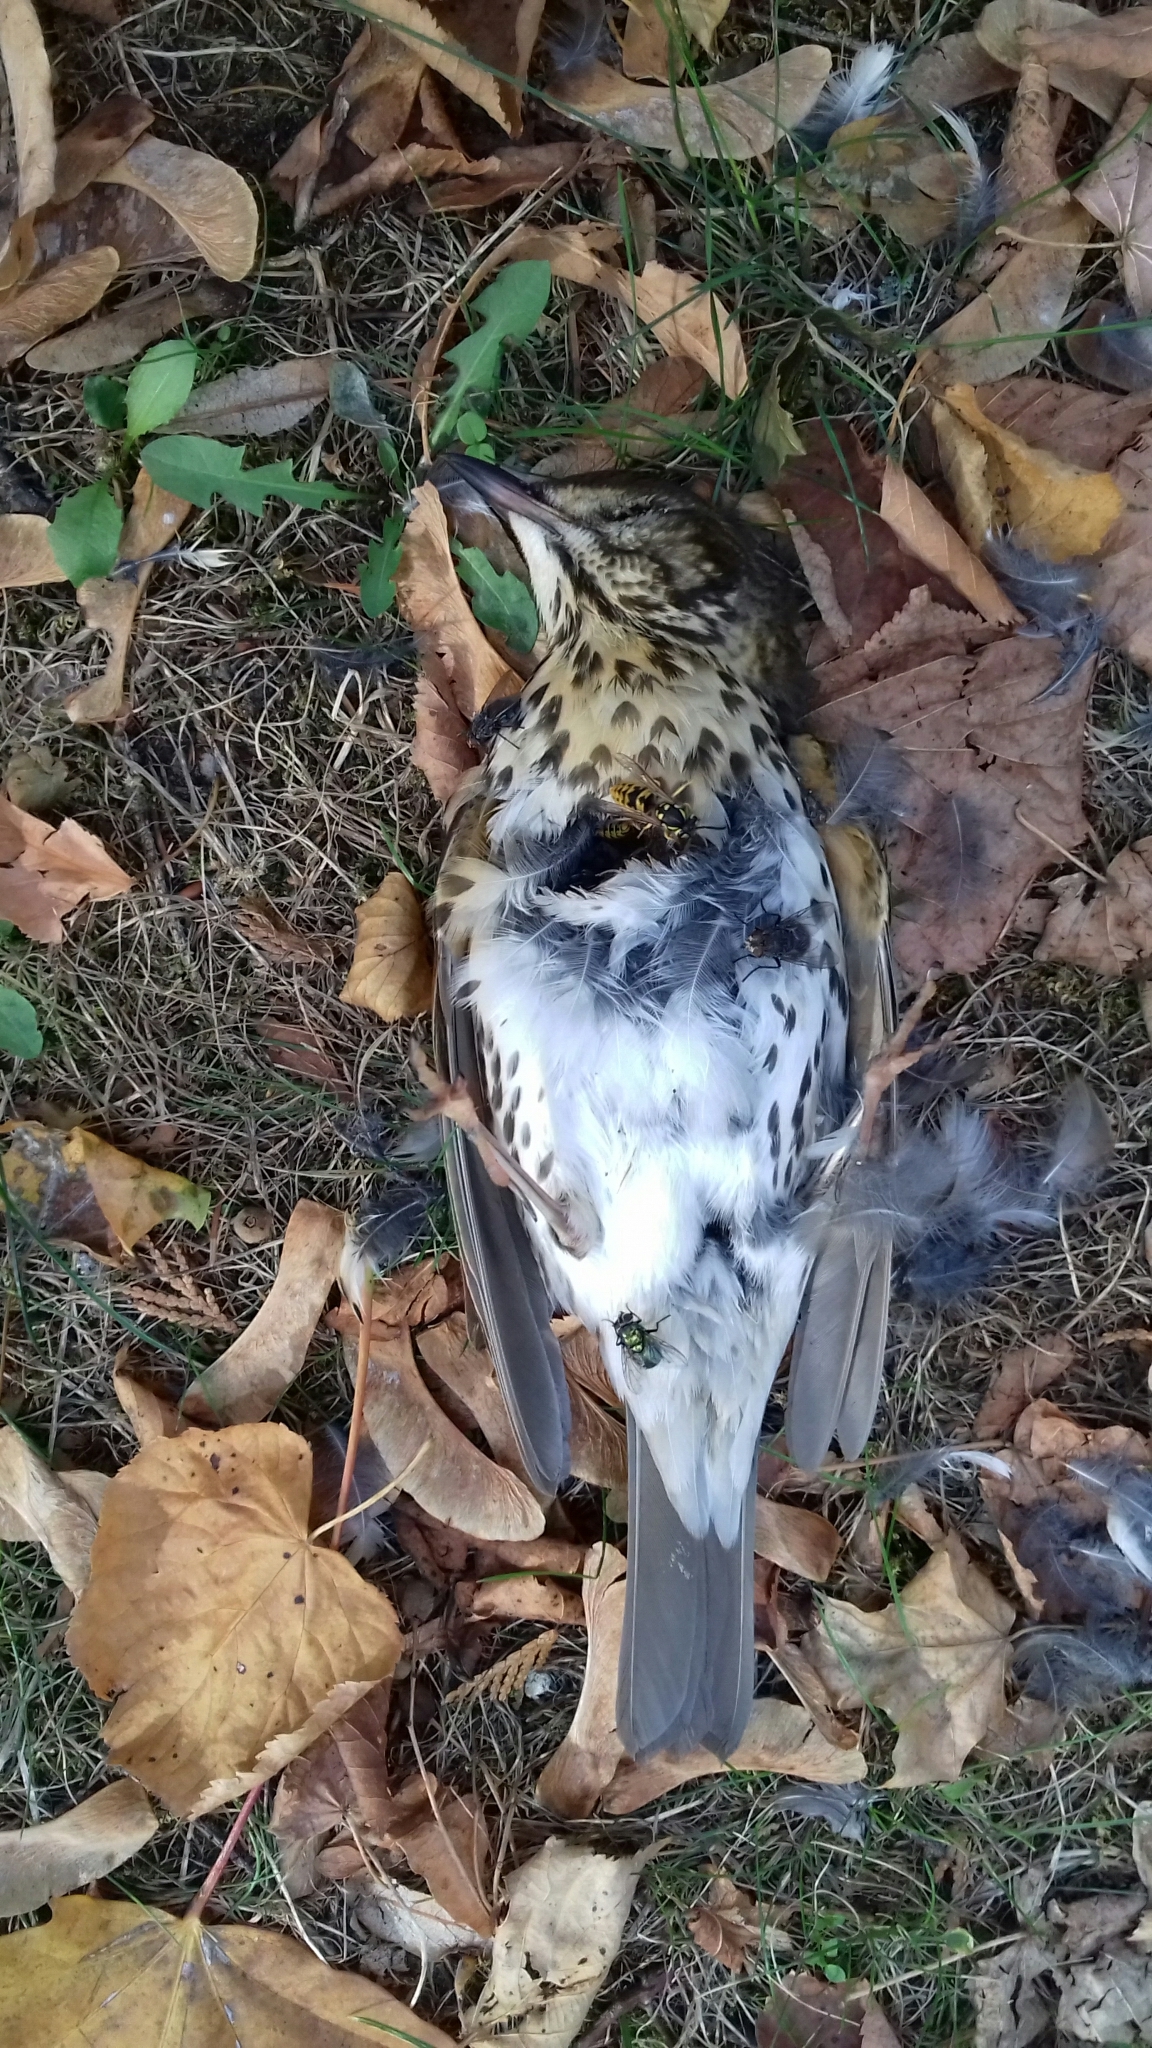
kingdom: Animalia
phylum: Chordata
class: Aves
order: Passeriformes
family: Turdidae
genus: Turdus
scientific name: Turdus philomelos
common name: Song thrush
